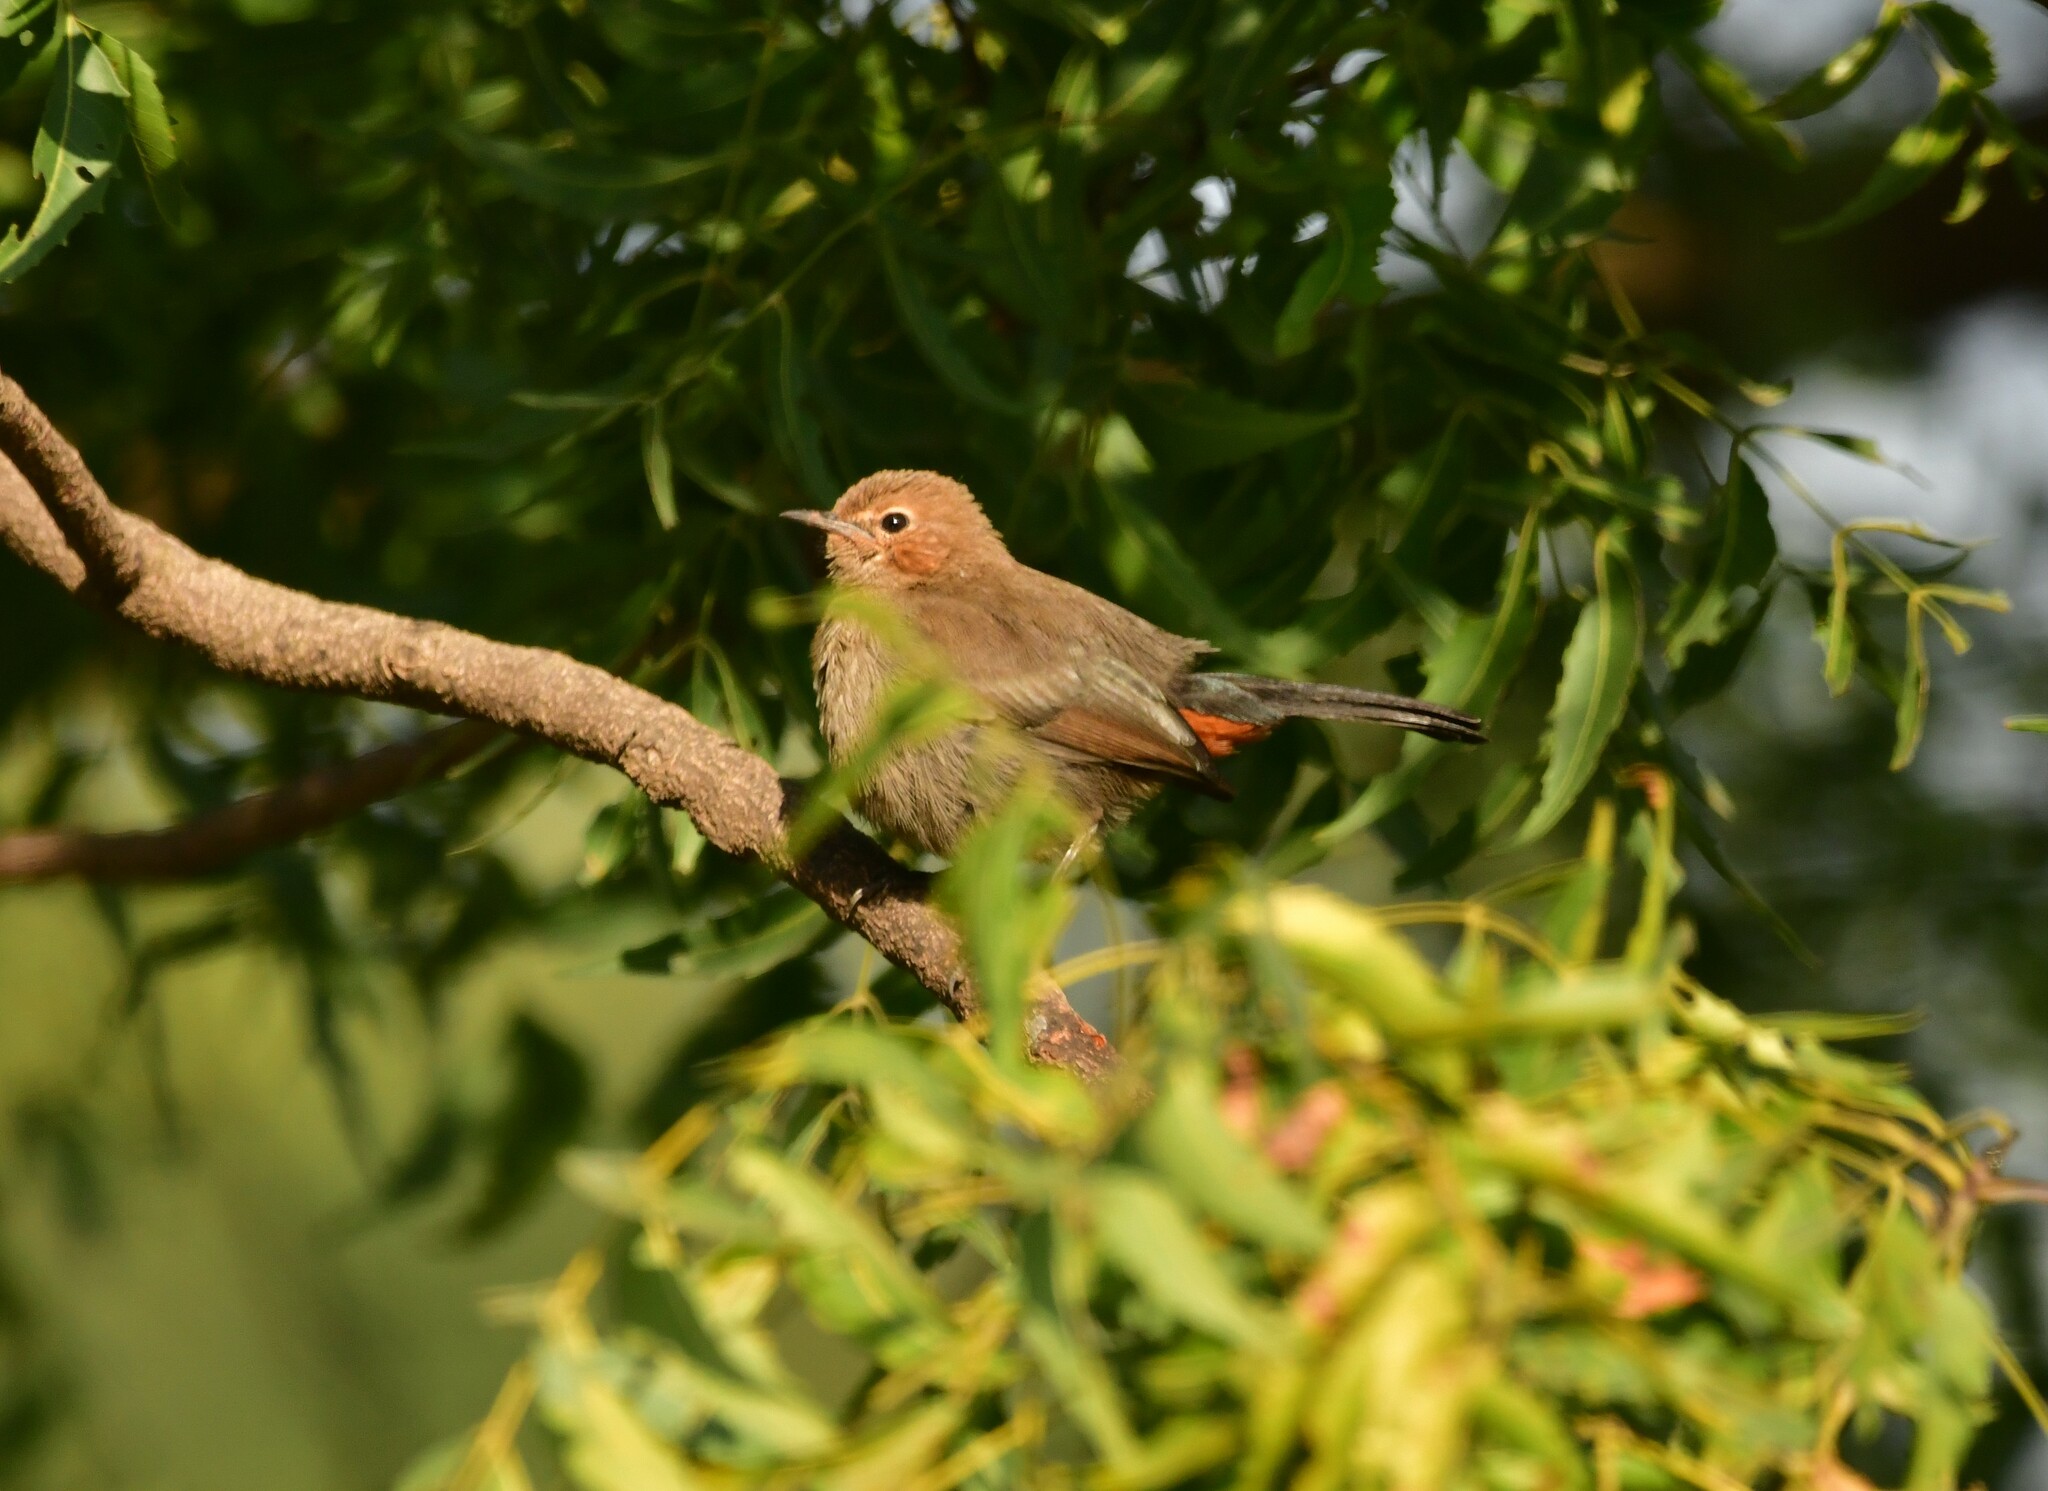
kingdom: Animalia
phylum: Chordata
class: Aves
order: Passeriformes
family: Muscicapidae
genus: Saxicoloides
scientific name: Saxicoloides fulicatus
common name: Indian robin
